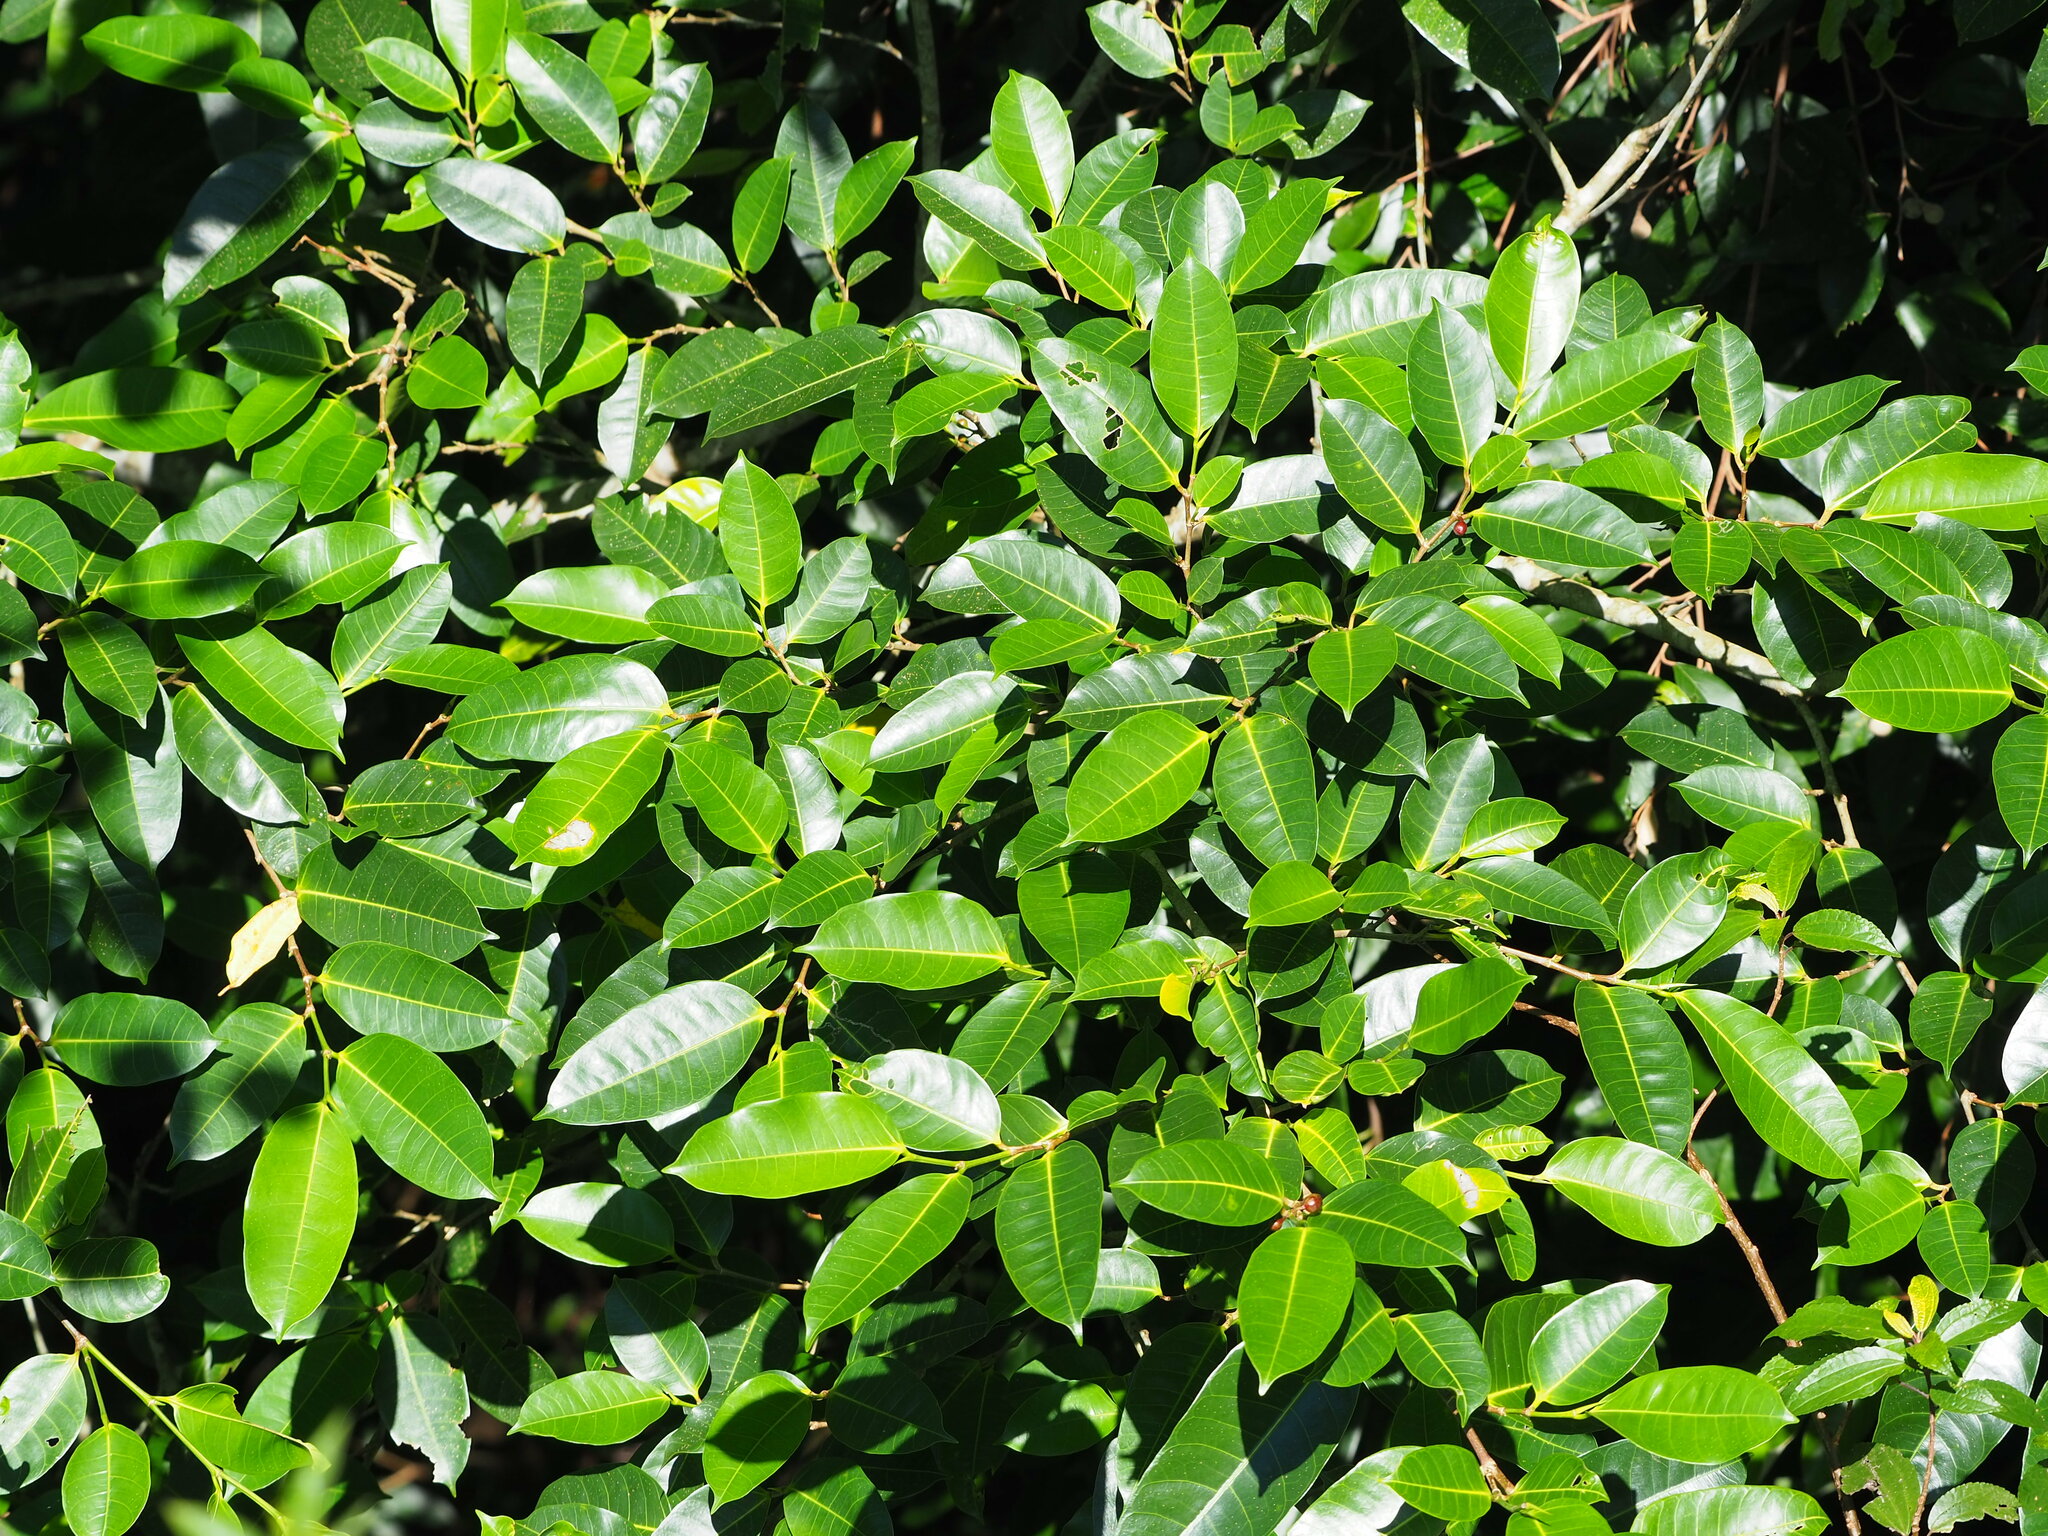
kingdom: Plantae
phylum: Tracheophyta
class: Magnoliopsida
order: Rosales
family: Moraceae
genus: Ficus
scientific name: Ficus virgata
